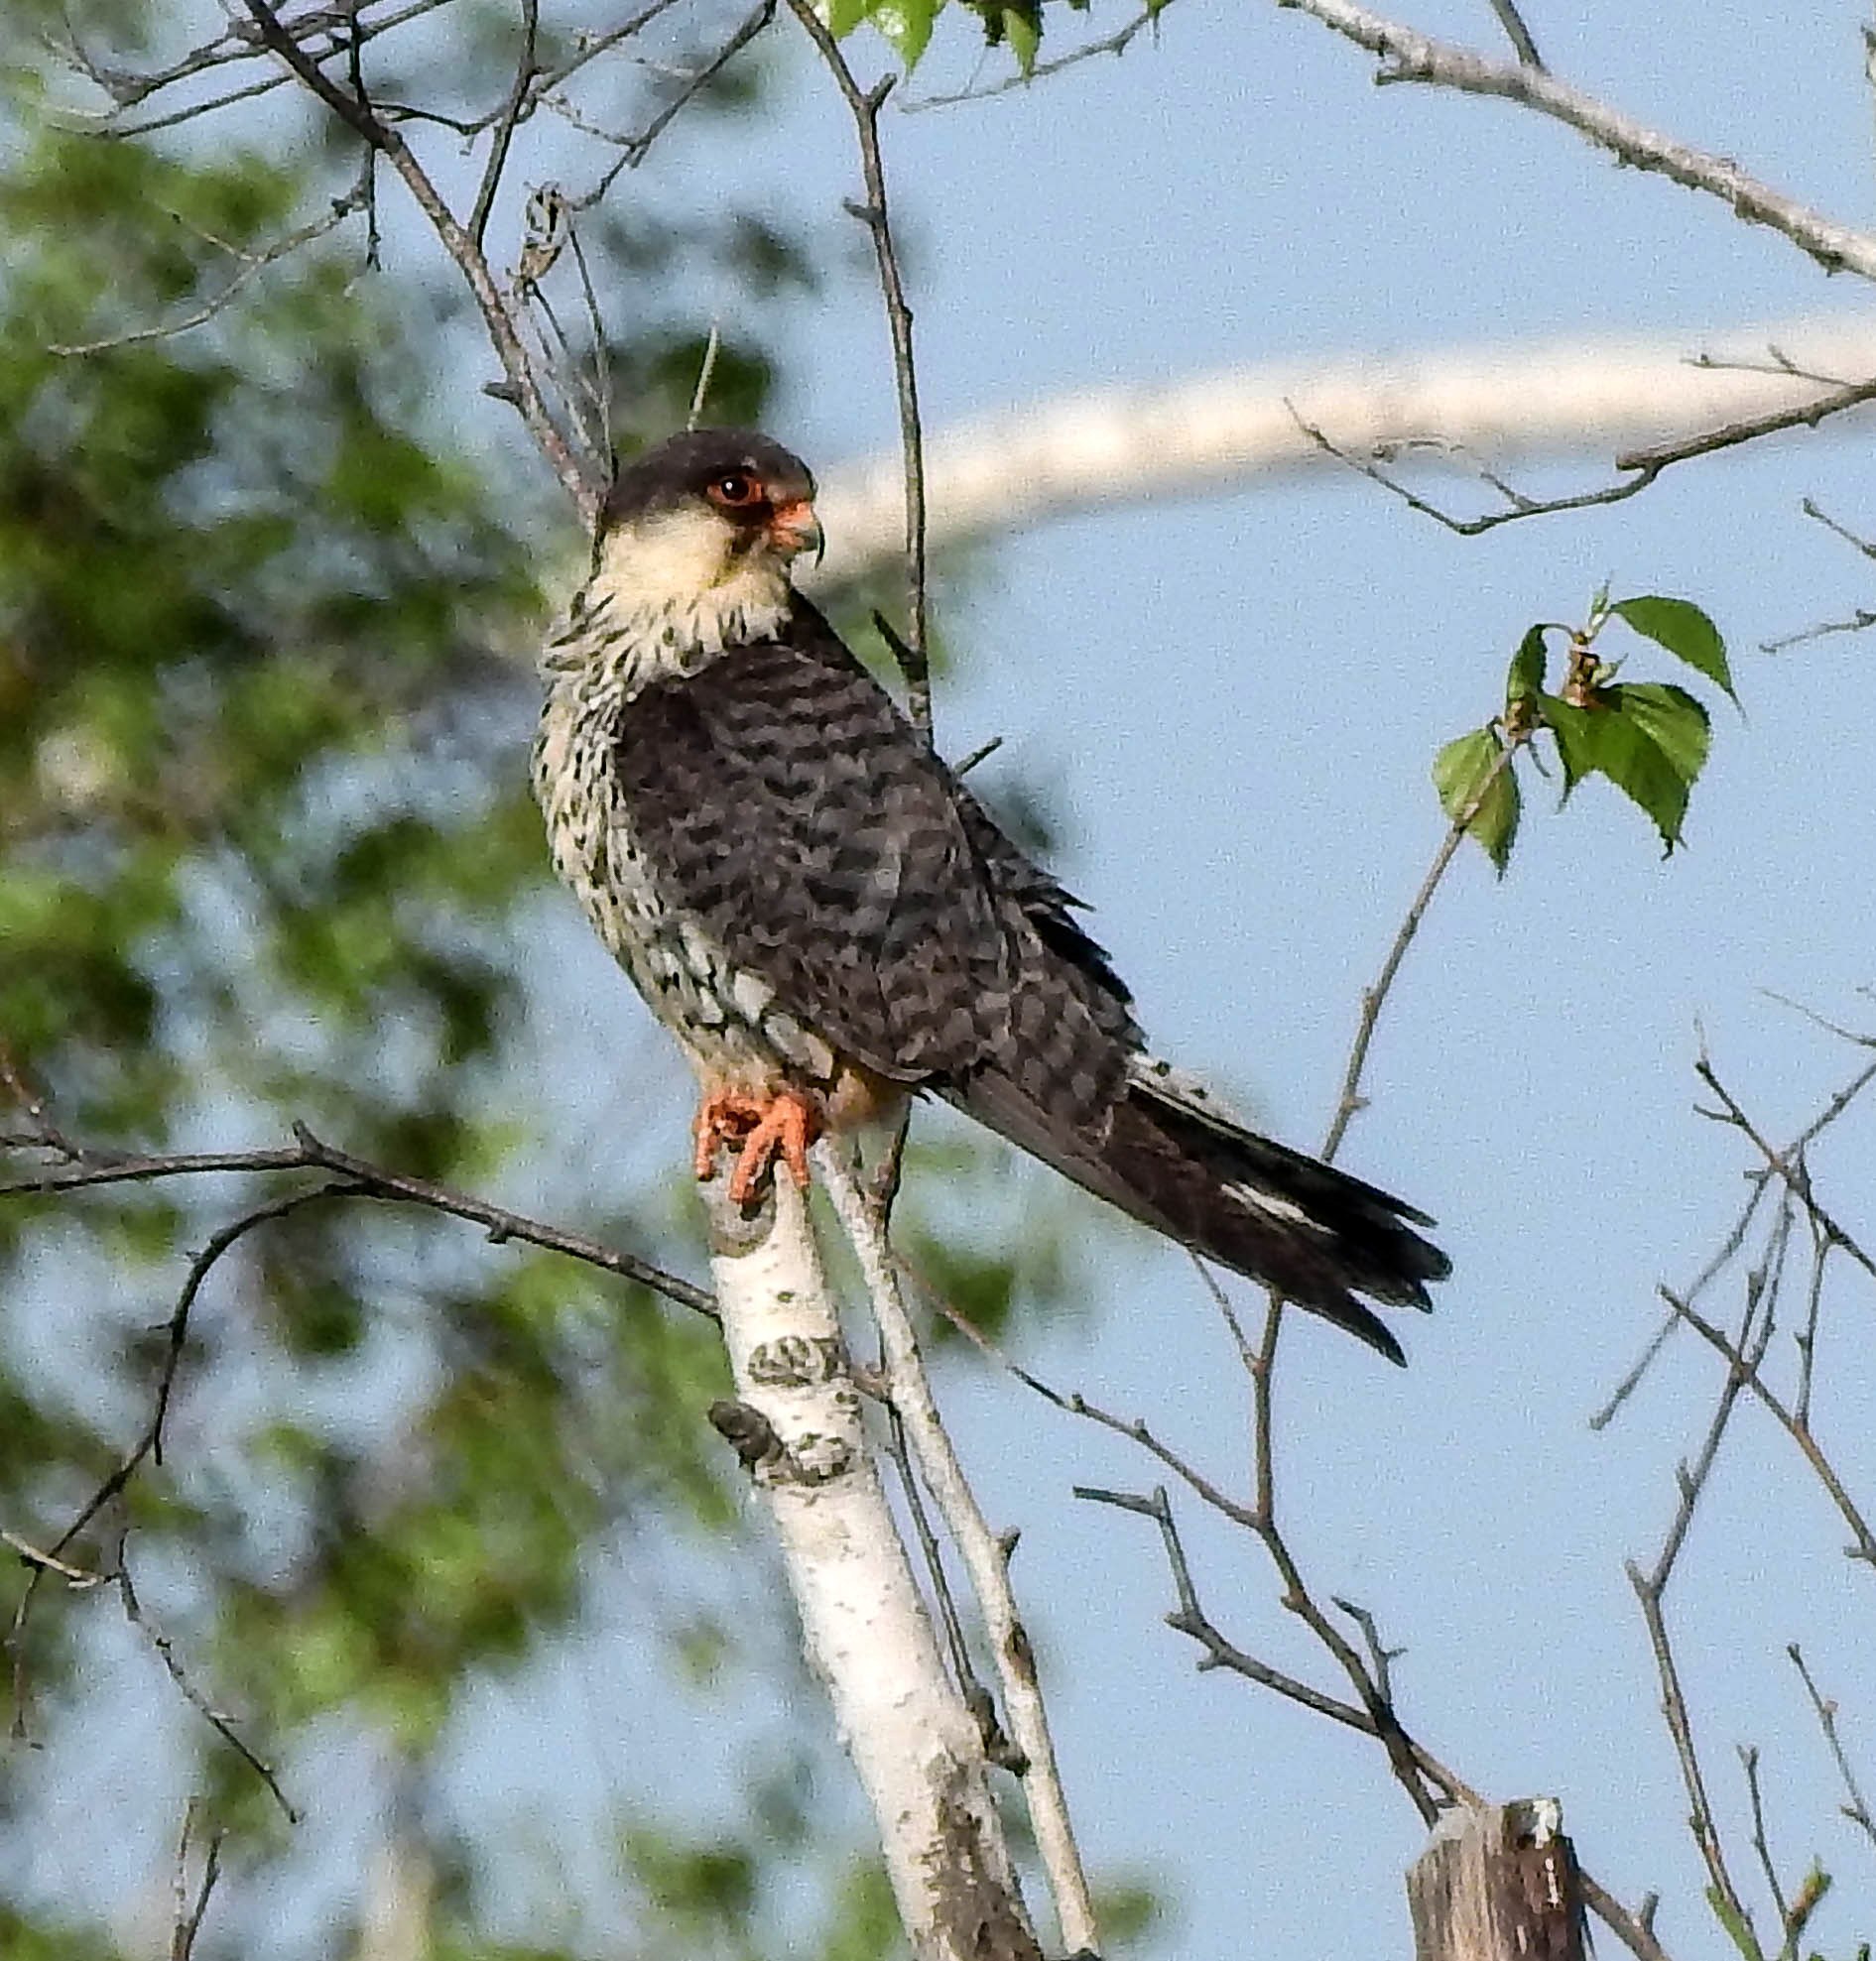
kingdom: Animalia
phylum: Chordata
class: Aves
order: Falconiformes
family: Falconidae
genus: Falco
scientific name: Falco amurensis
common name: Amur falcon
